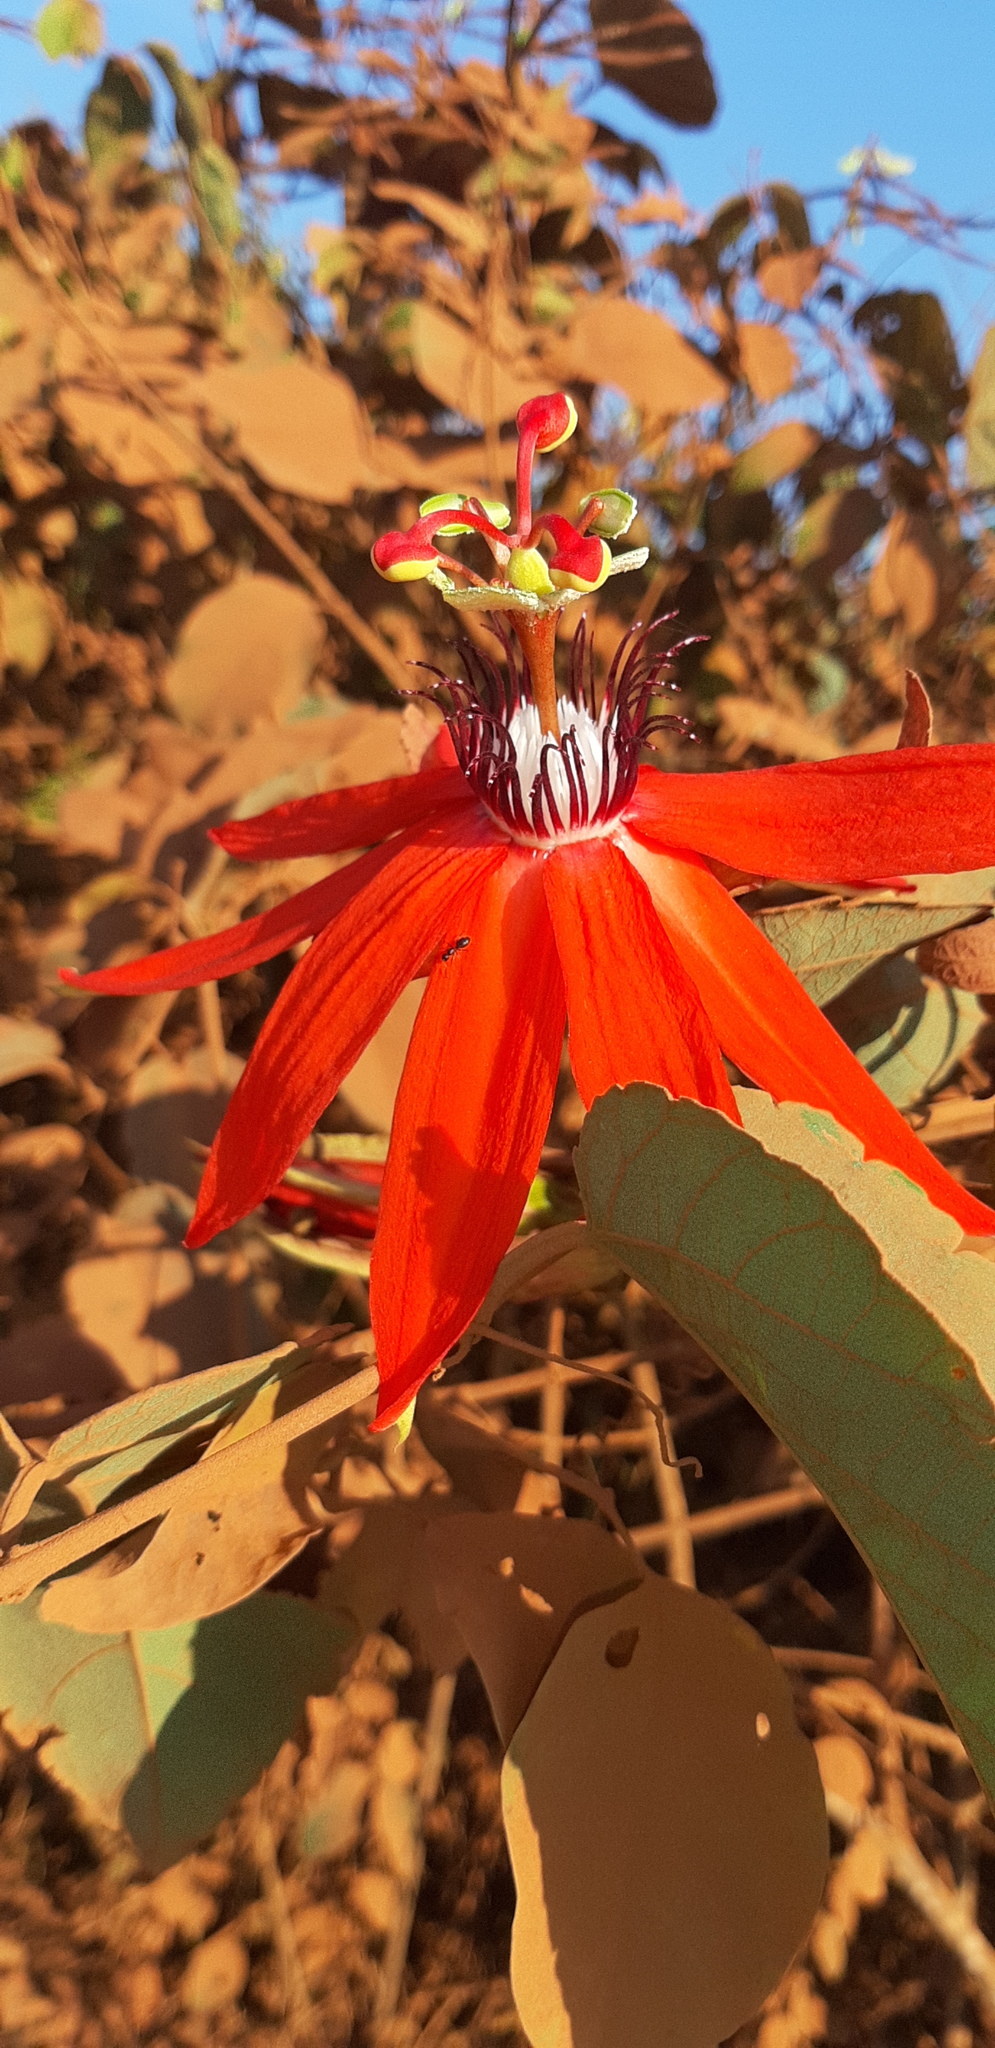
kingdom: Plantae
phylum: Tracheophyta
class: Magnoliopsida
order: Malpighiales
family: Passifloraceae
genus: Passiflora
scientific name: Passiflora miniata
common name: Red granadilla
